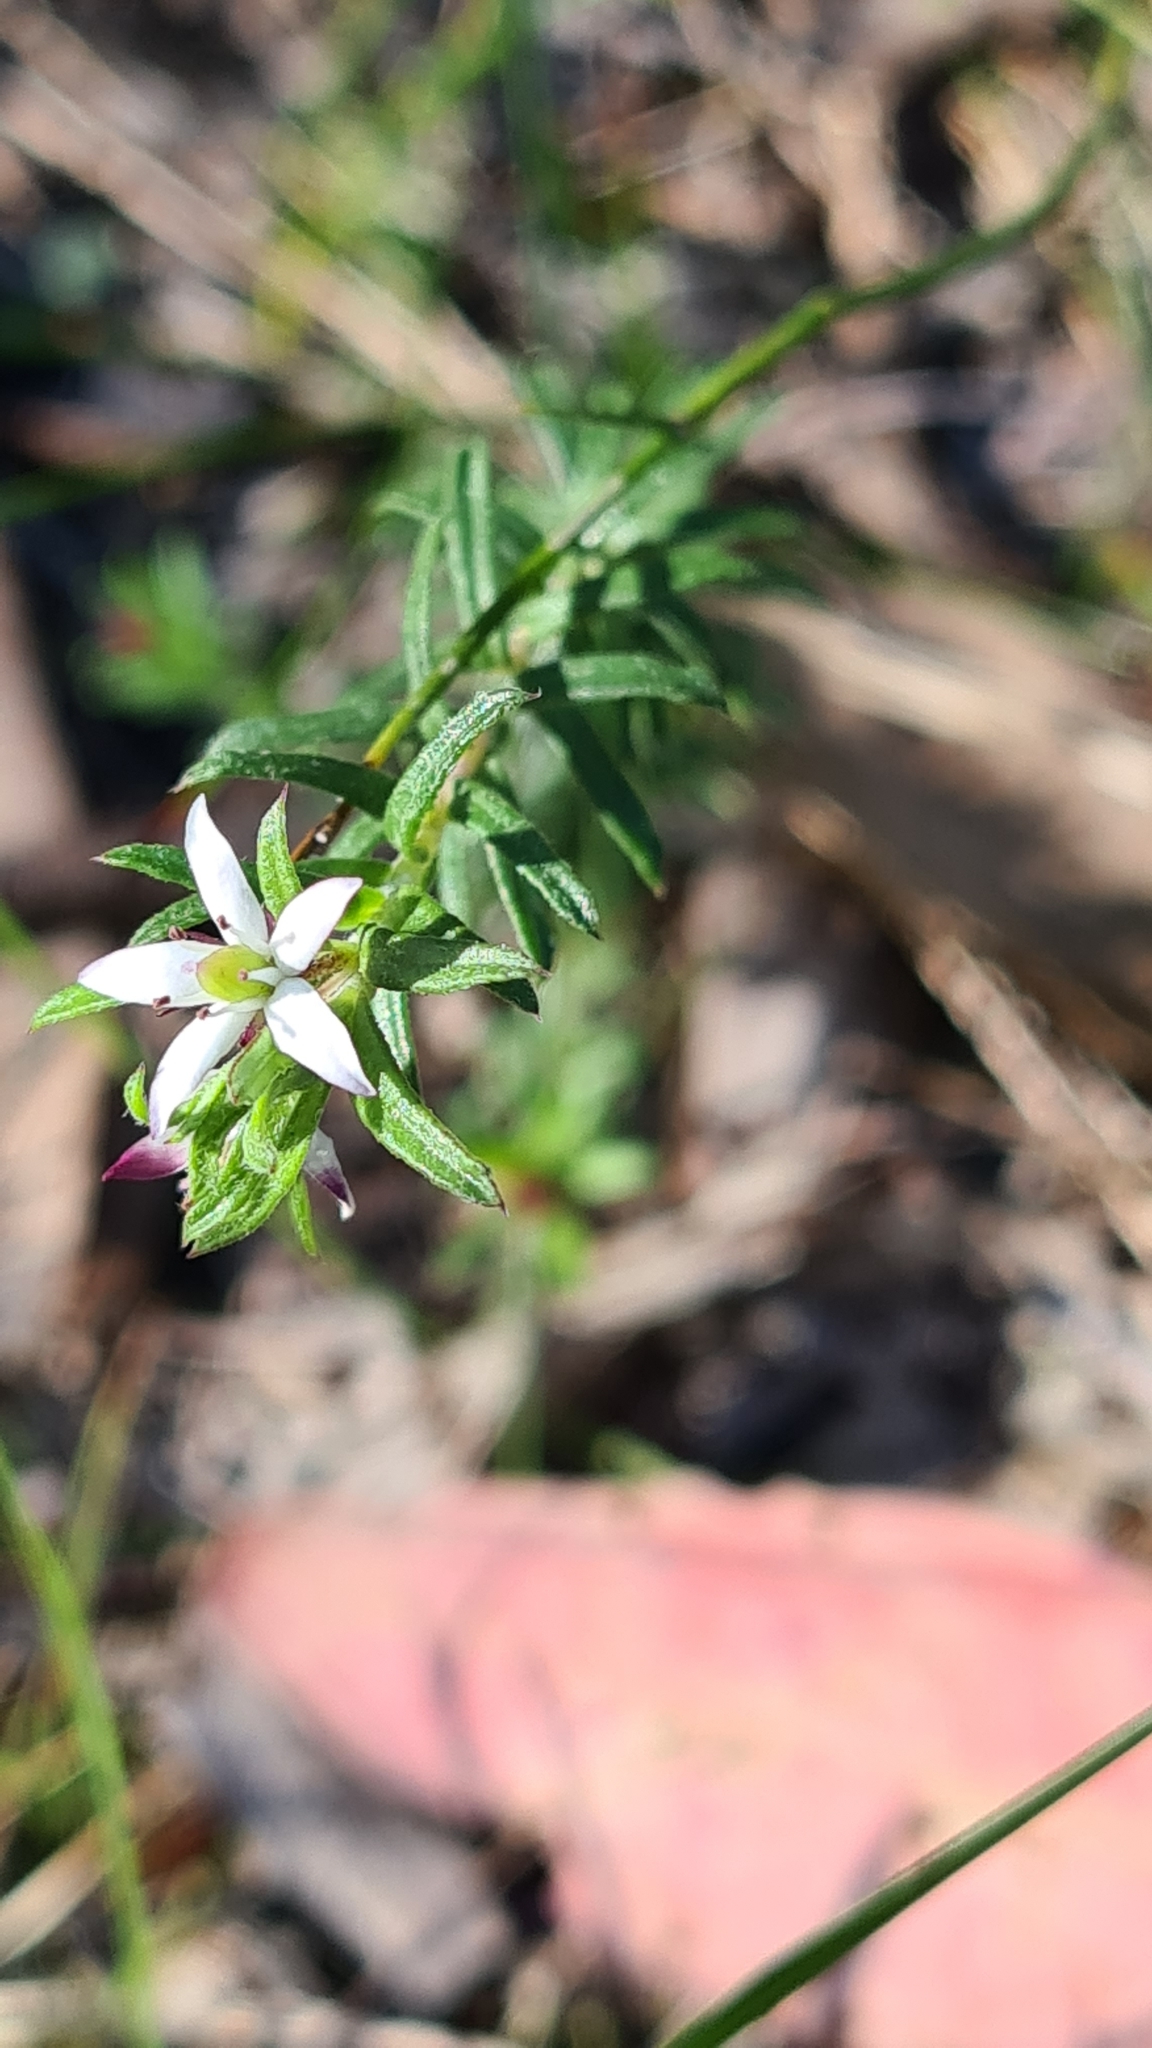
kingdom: Plantae
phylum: Tracheophyta
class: Magnoliopsida
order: Apiales
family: Pittosporaceae
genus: Rhytidosporum
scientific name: Rhytidosporum procumbens
